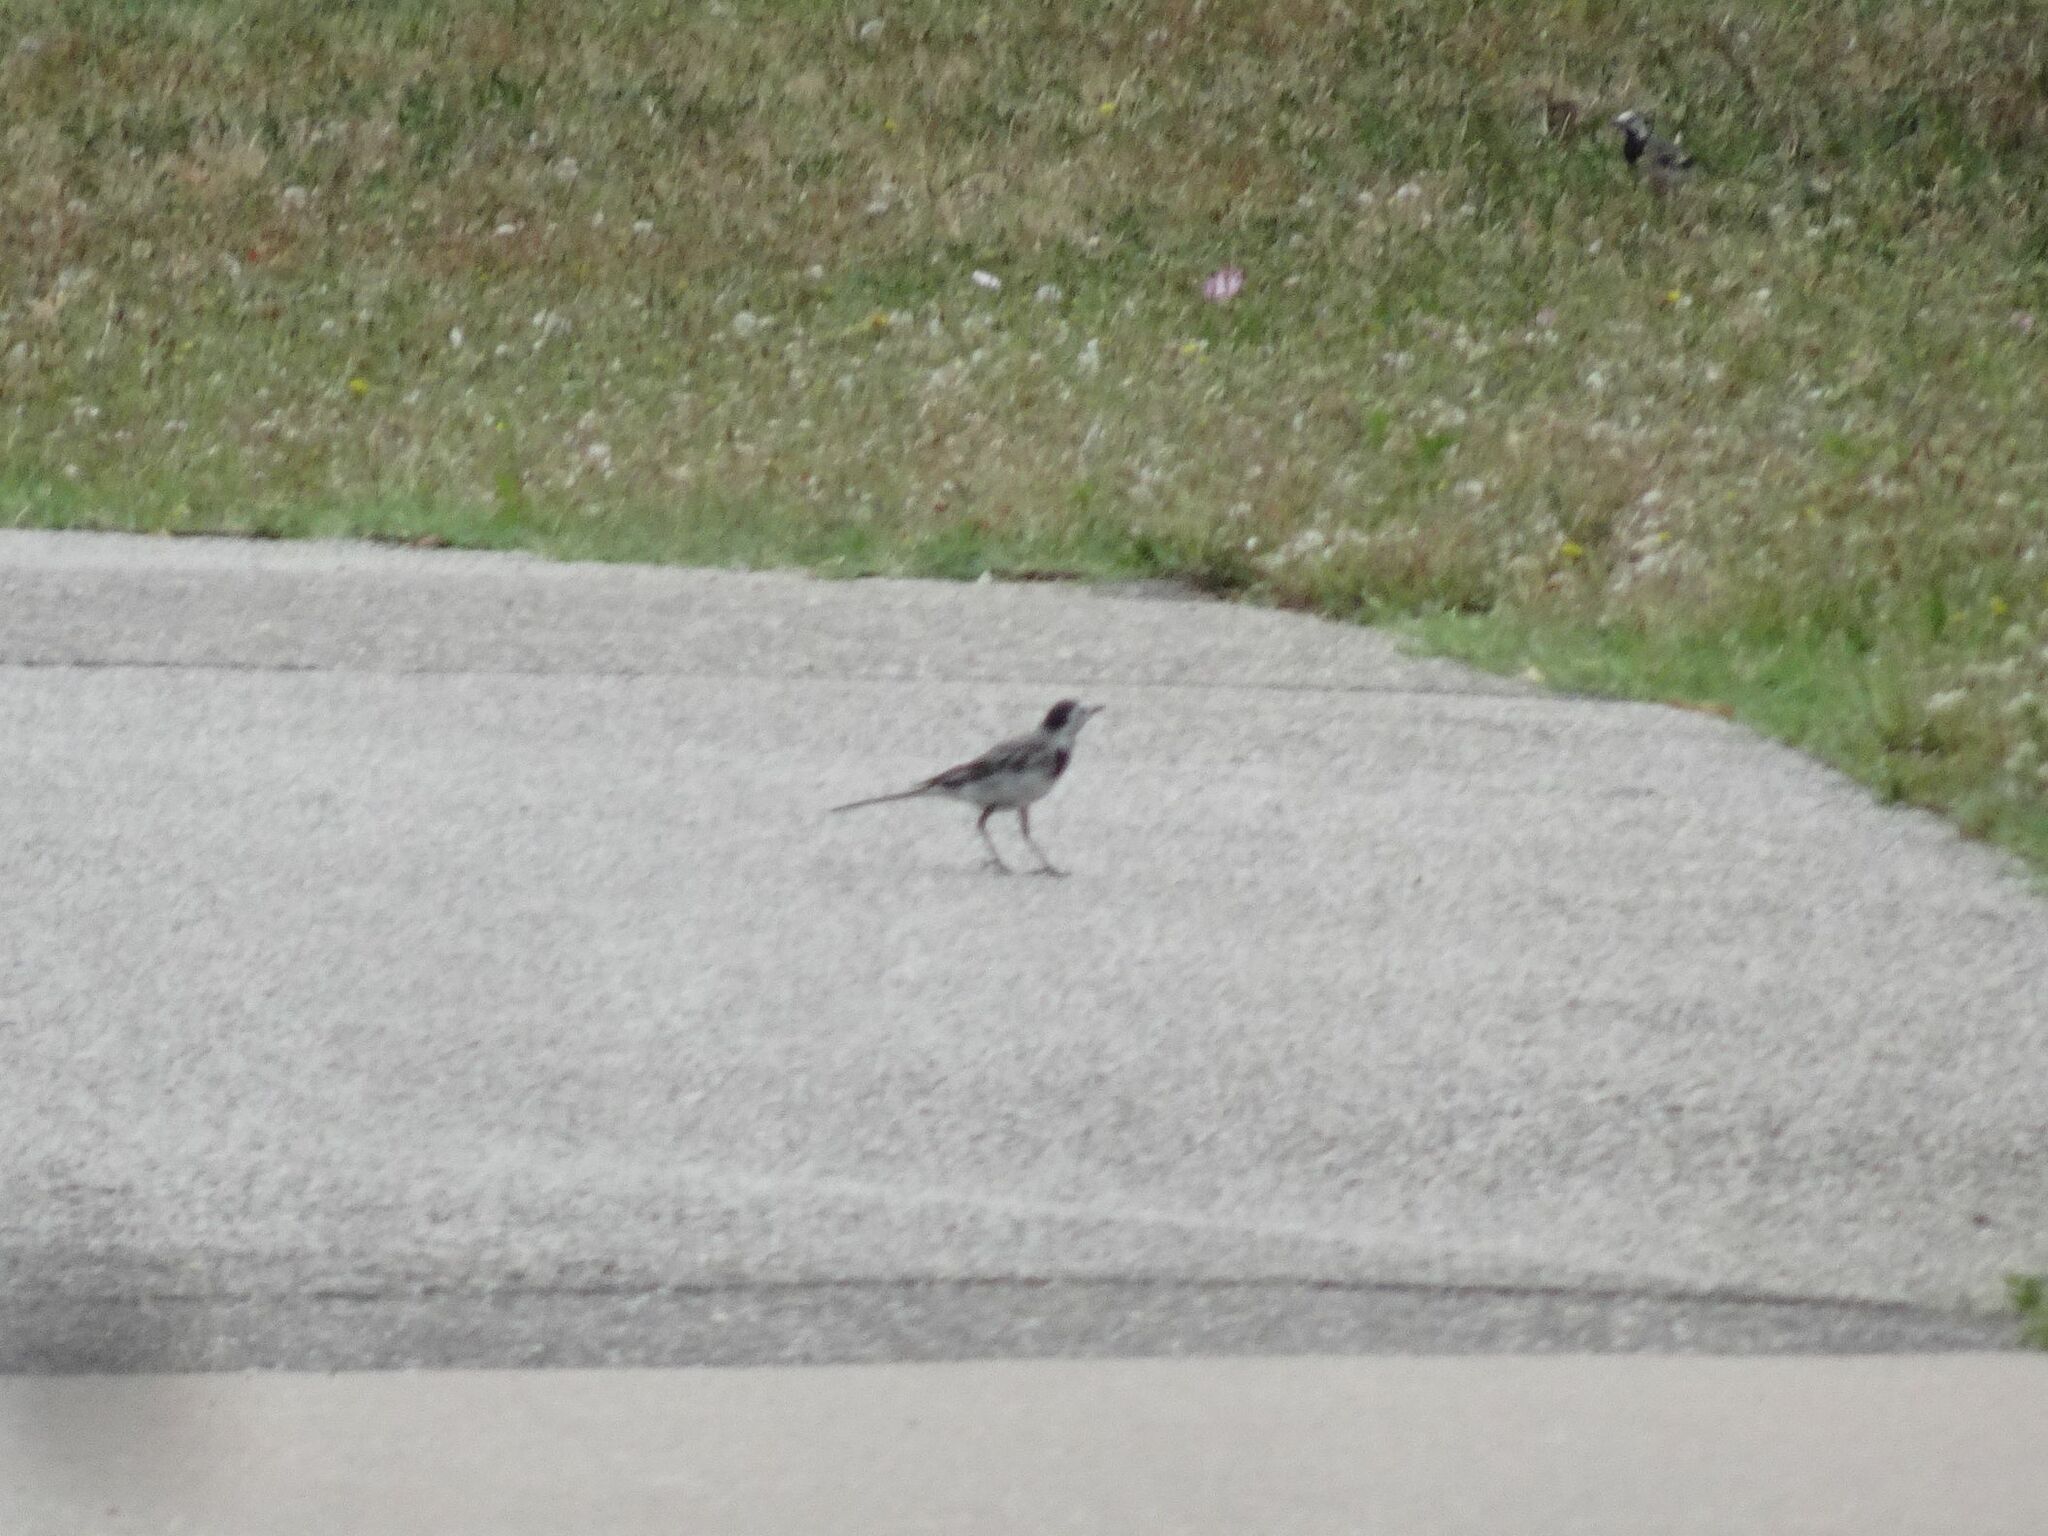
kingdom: Animalia
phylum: Chordata
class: Aves
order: Passeriformes
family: Motacillidae
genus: Motacilla
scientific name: Motacilla alba
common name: White wagtail
